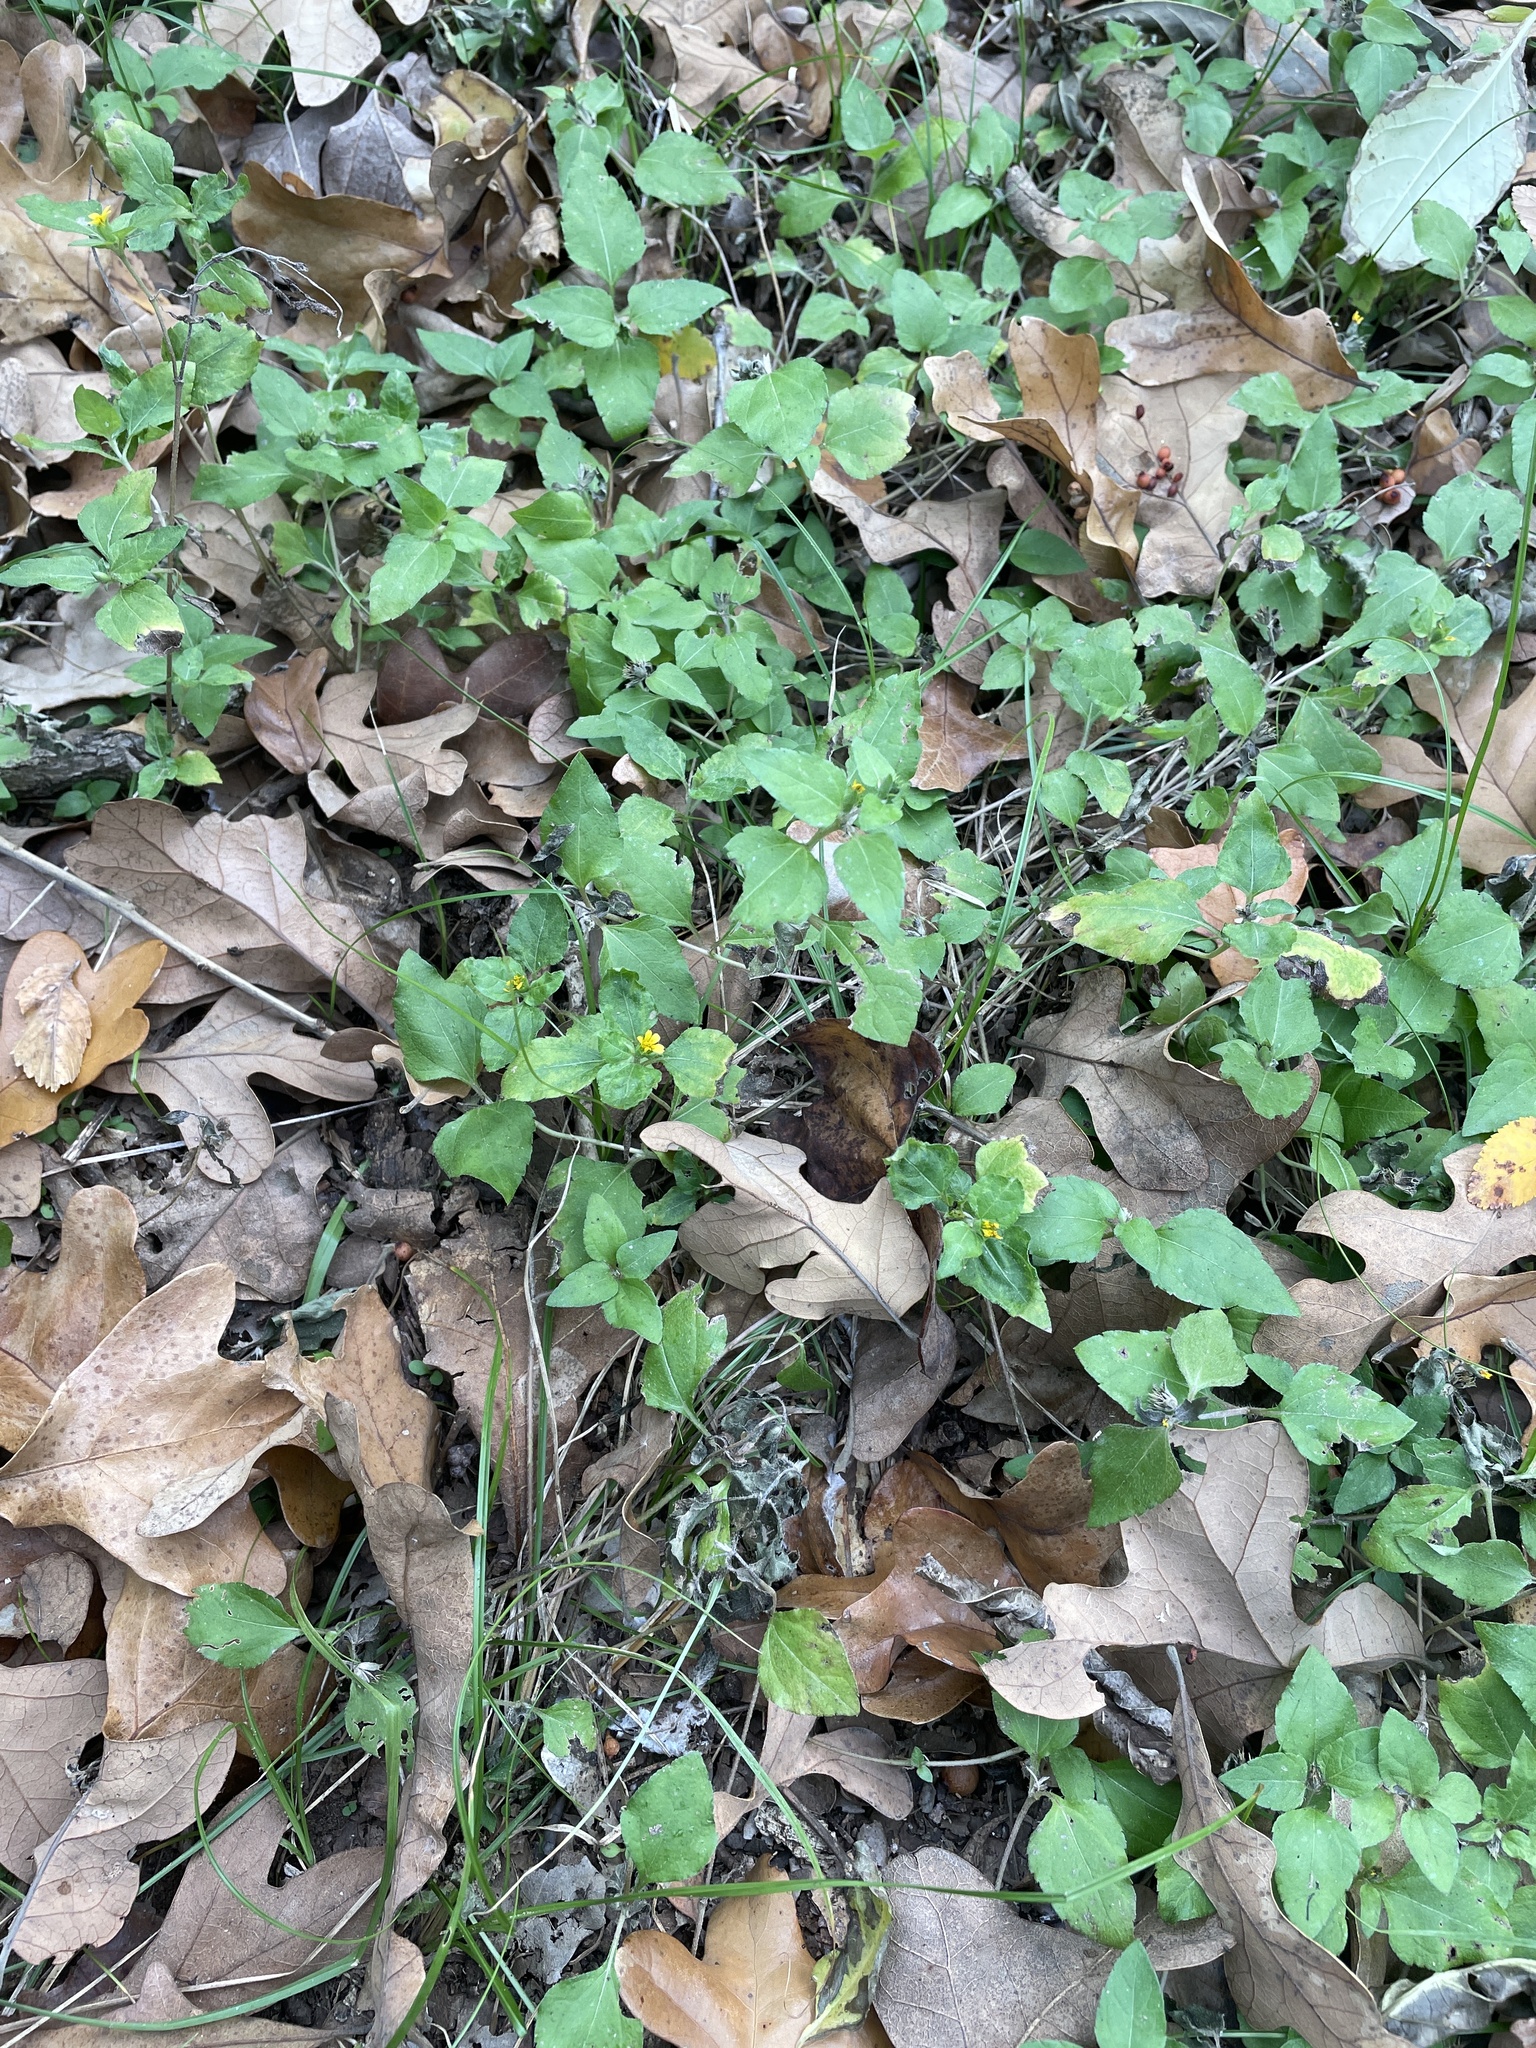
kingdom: Plantae
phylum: Tracheophyta
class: Magnoliopsida
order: Asterales
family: Asteraceae
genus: Calyptocarpus
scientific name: Calyptocarpus vialis
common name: Straggler daisy
